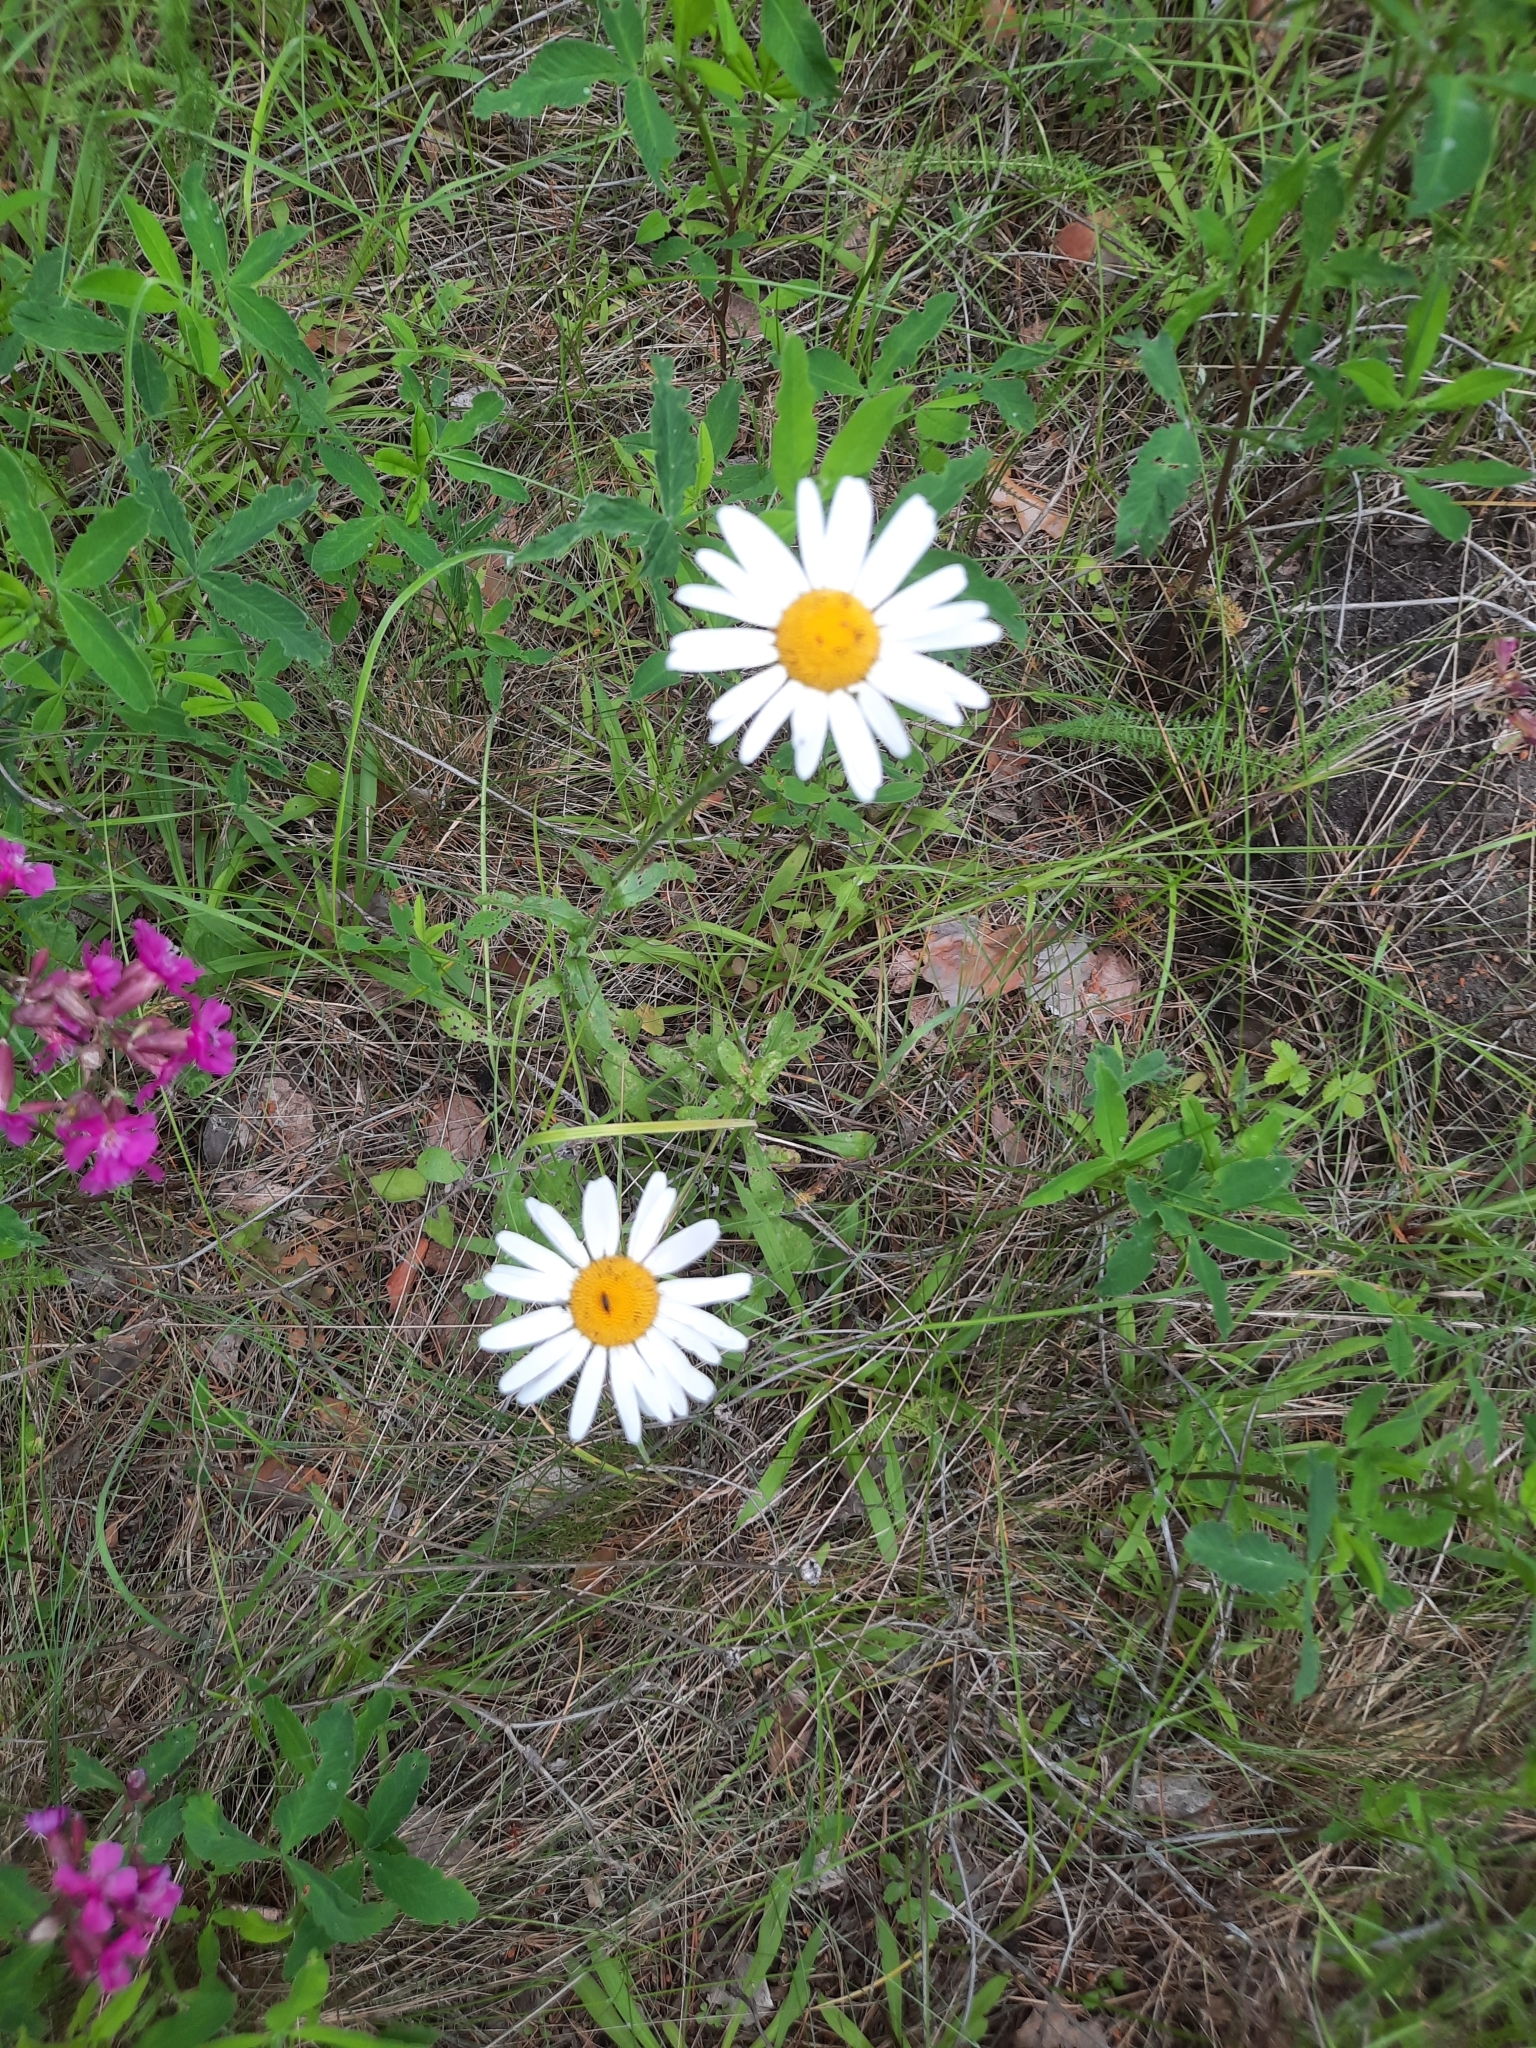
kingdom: Plantae
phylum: Tracheophyta
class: Magnoliopsida
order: Asterales
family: Asteraceae
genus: Leucanthemum
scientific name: Leucanthemum vulgare
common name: Oxeye daisy
